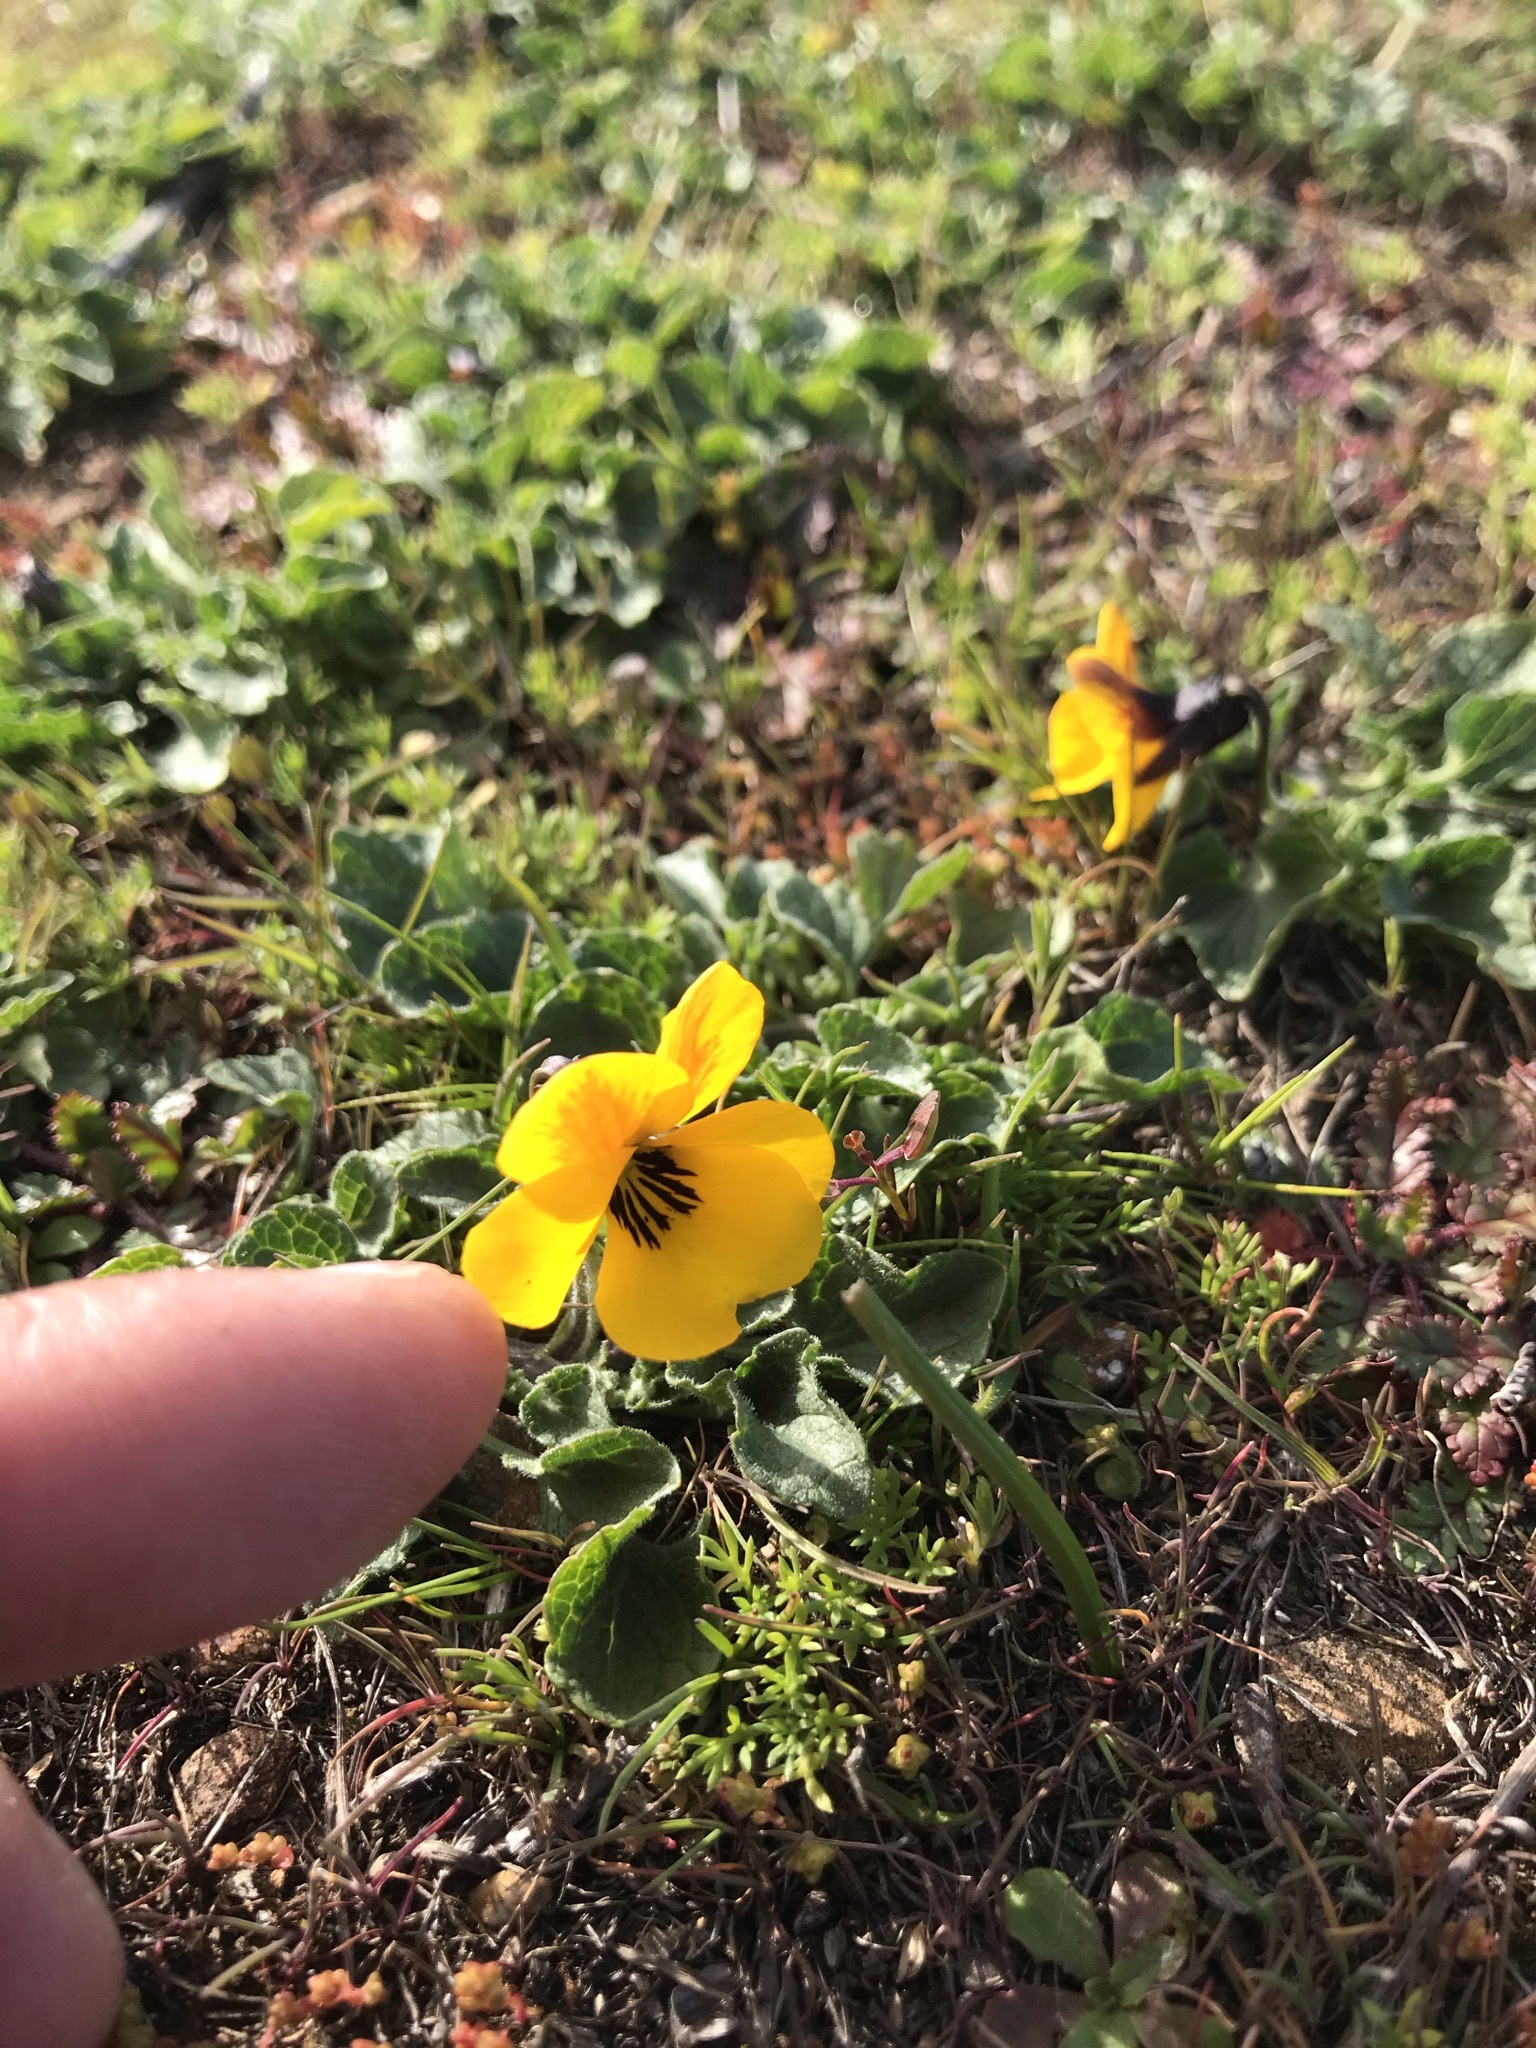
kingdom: Plantae
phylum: Tracheophyta
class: Magnoliopsida
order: Malpighiales
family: Violaceae
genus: Viola
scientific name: Viola pedunculata
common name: California golden violet
